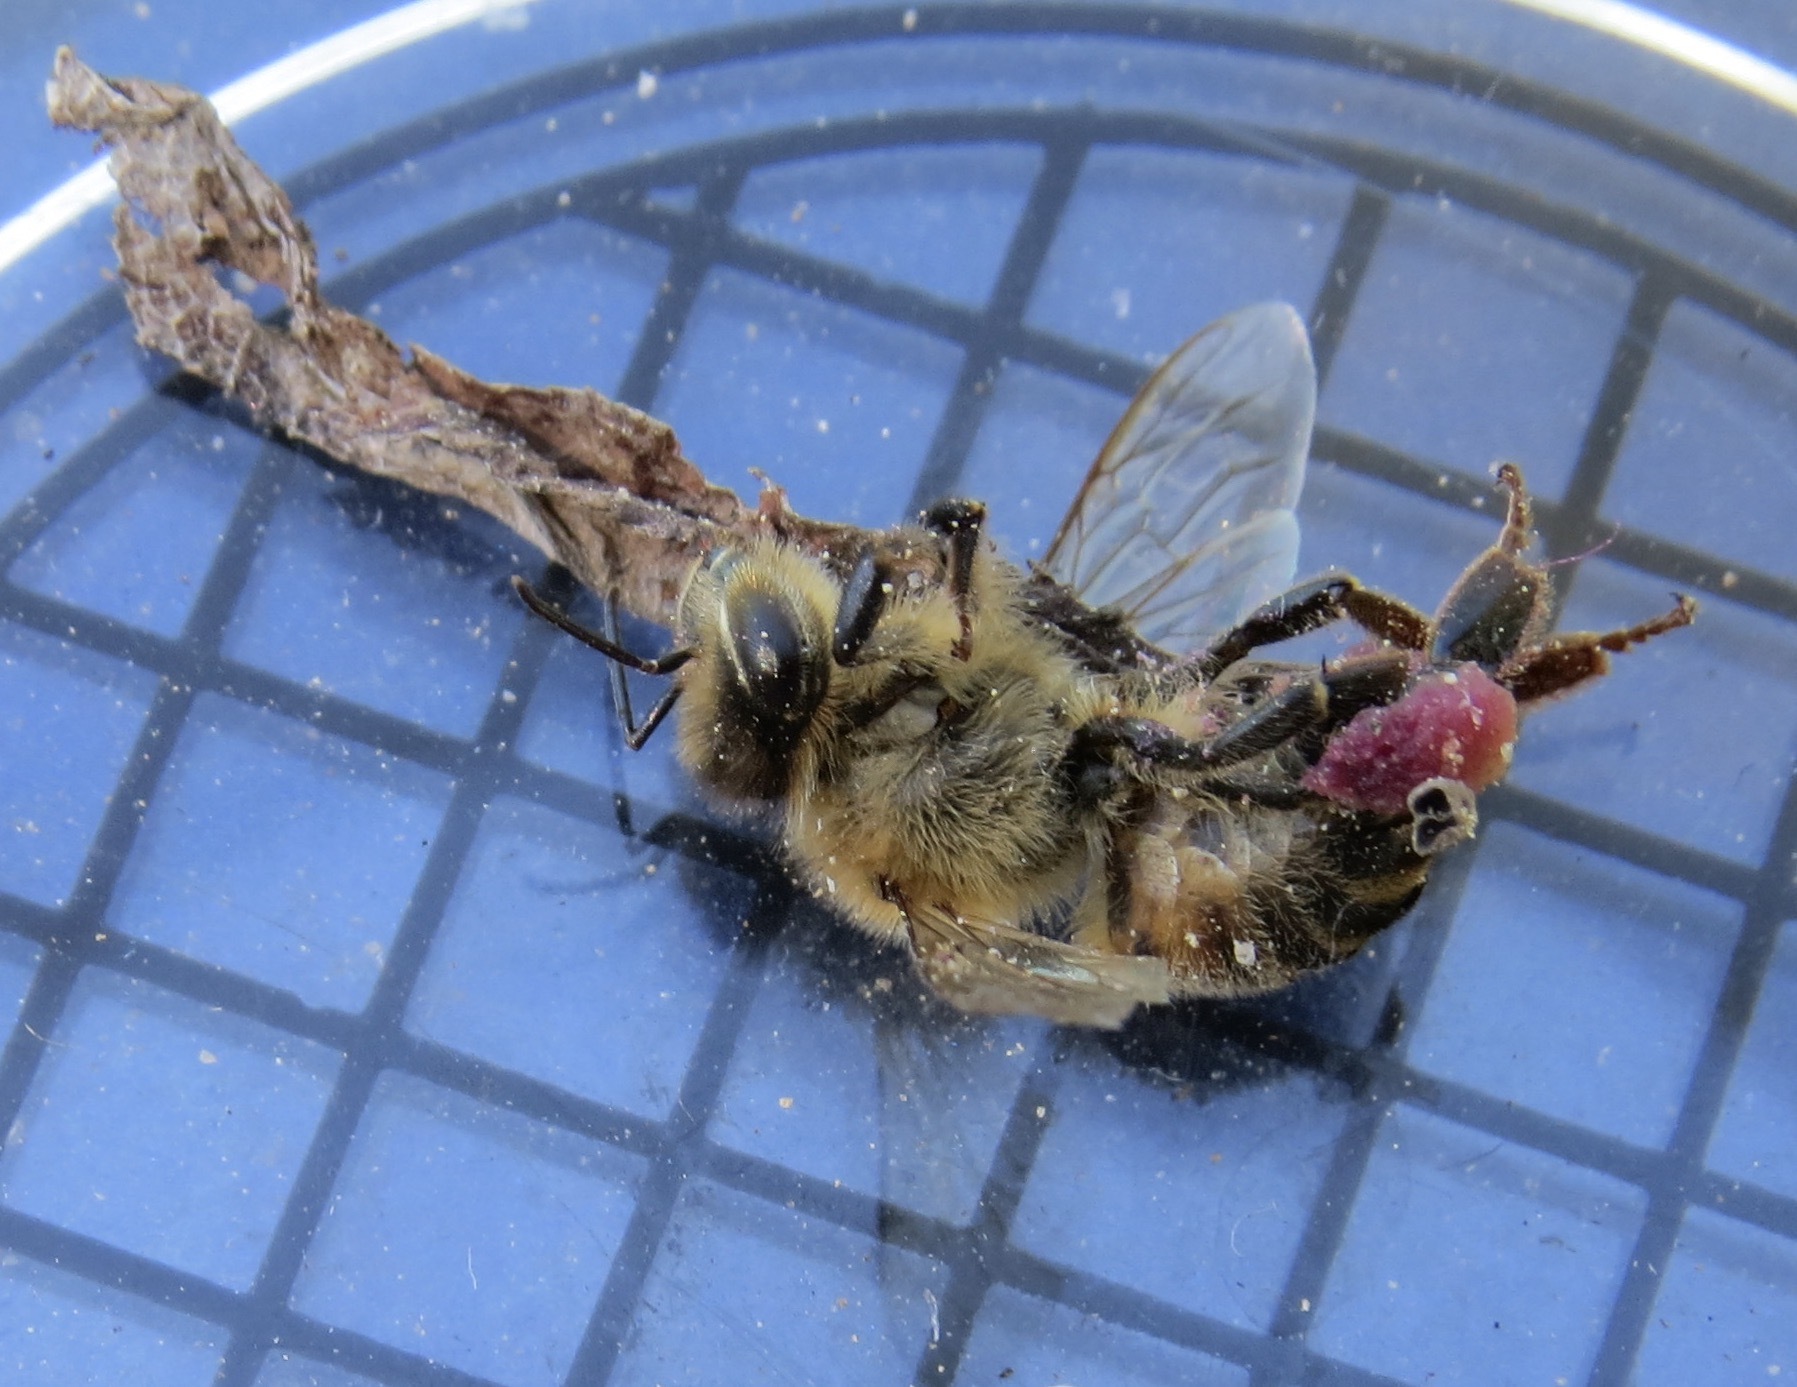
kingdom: Animalia
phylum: Arthropoda
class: Insecta
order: Hymenoptera
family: Apidae
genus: Apis
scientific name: Apis mellifera
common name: Honey bee
